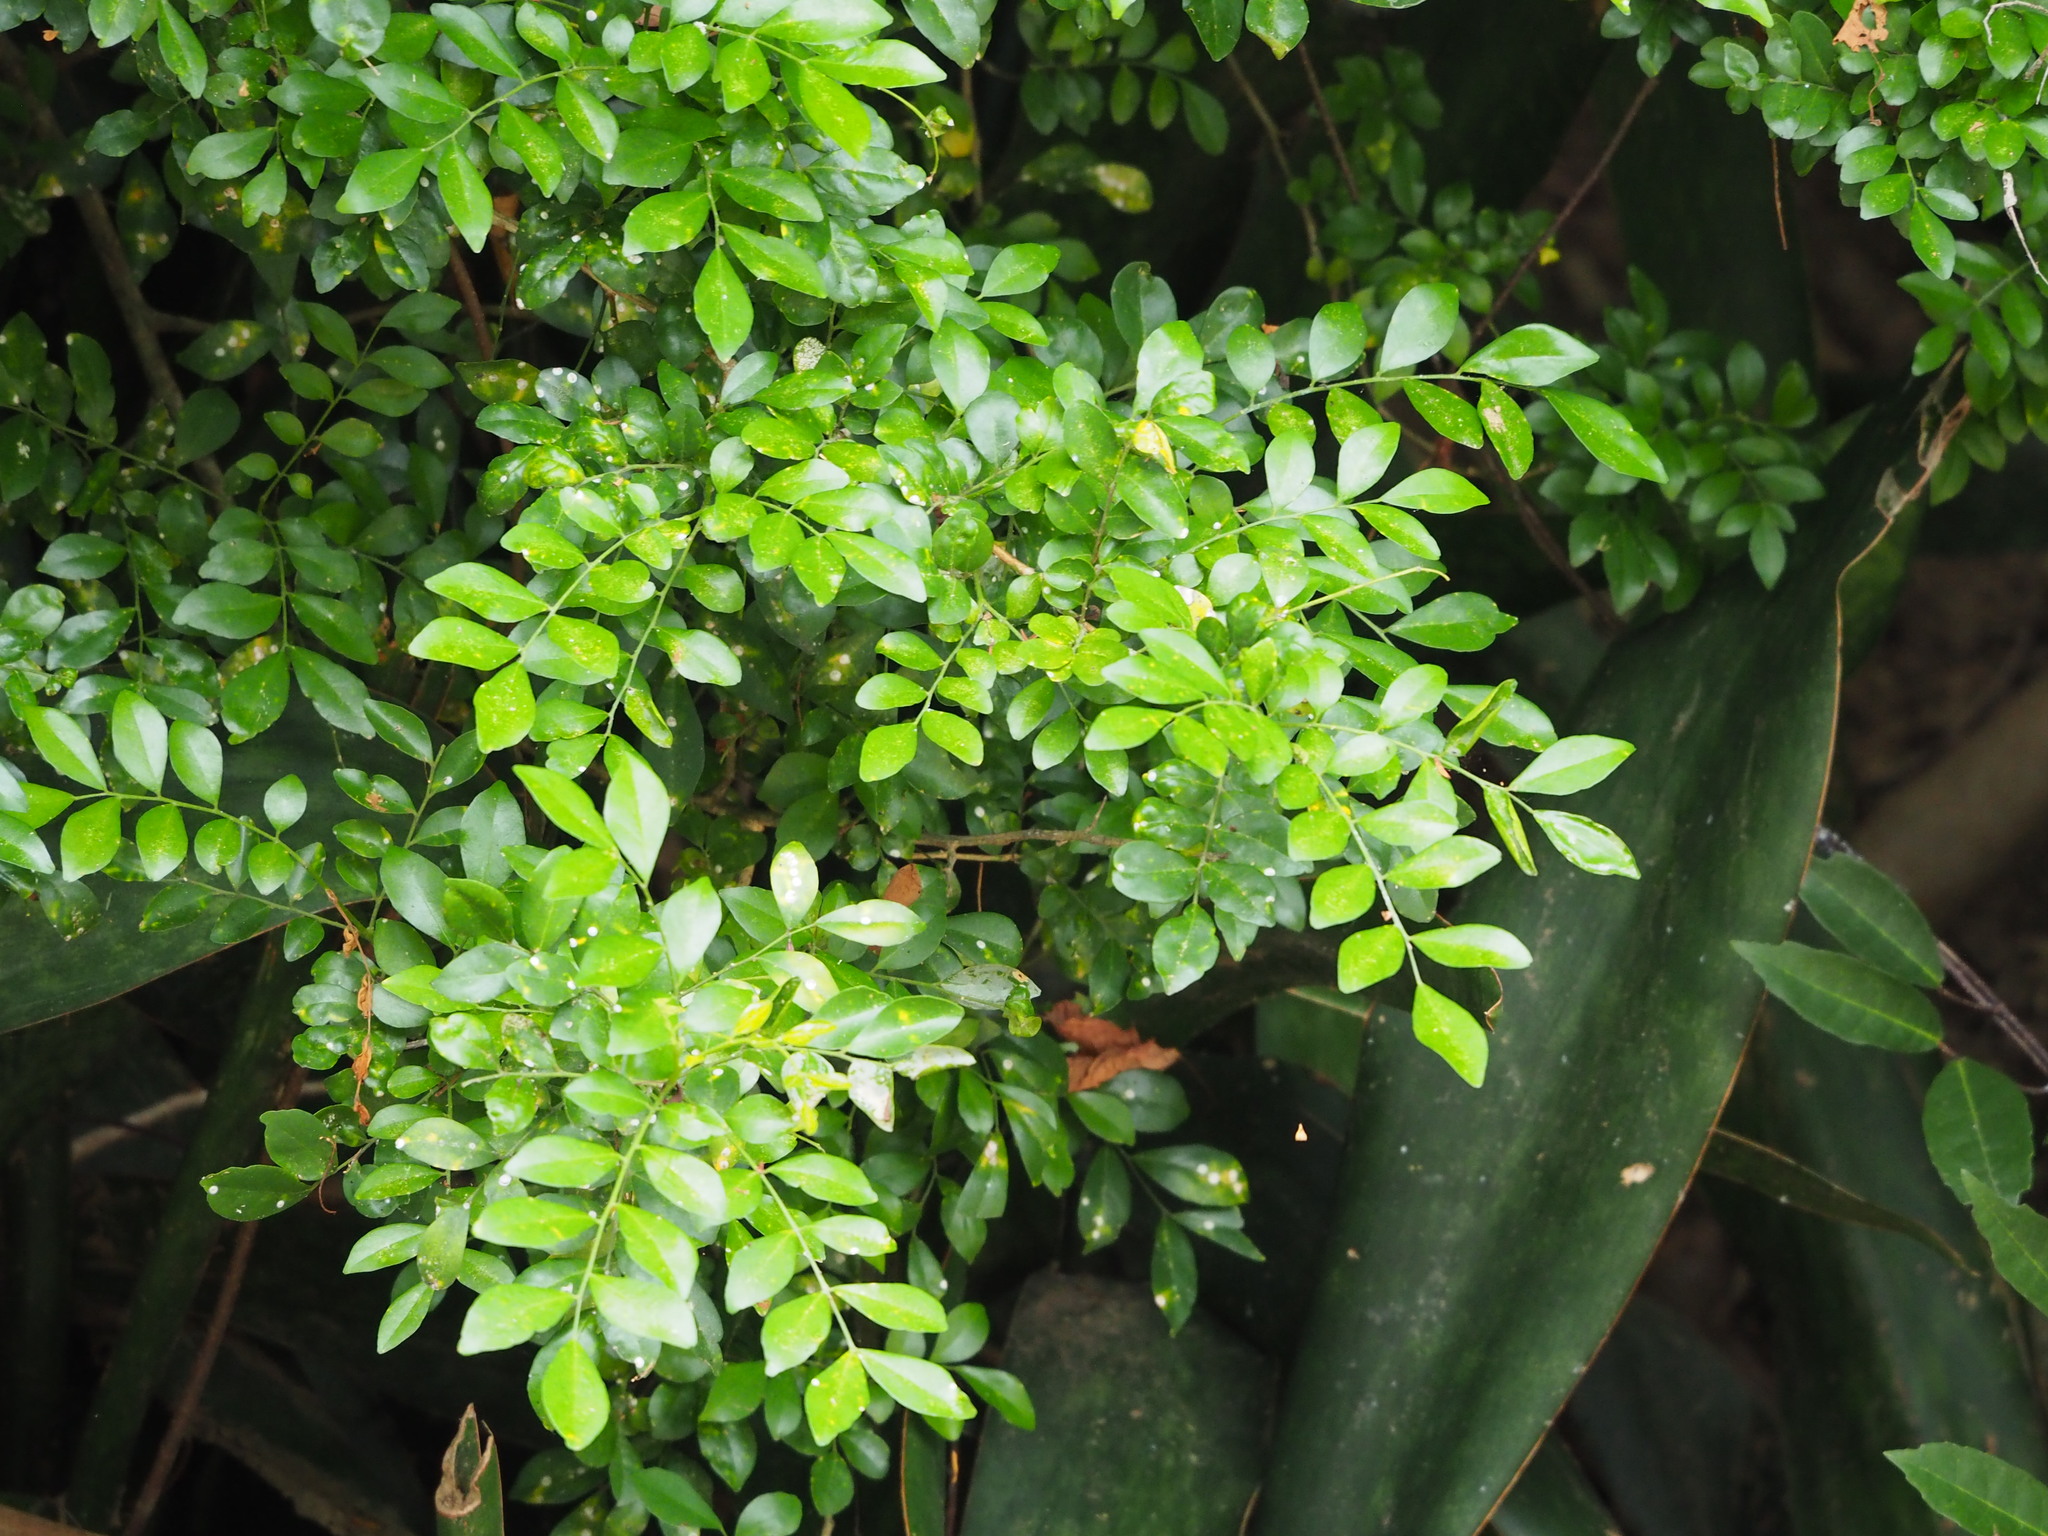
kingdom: Plantae
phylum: Tracheophyta
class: Magnoliopsida
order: Sapindales
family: Rutaceae
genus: Murraya
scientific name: Murraya paniculata
